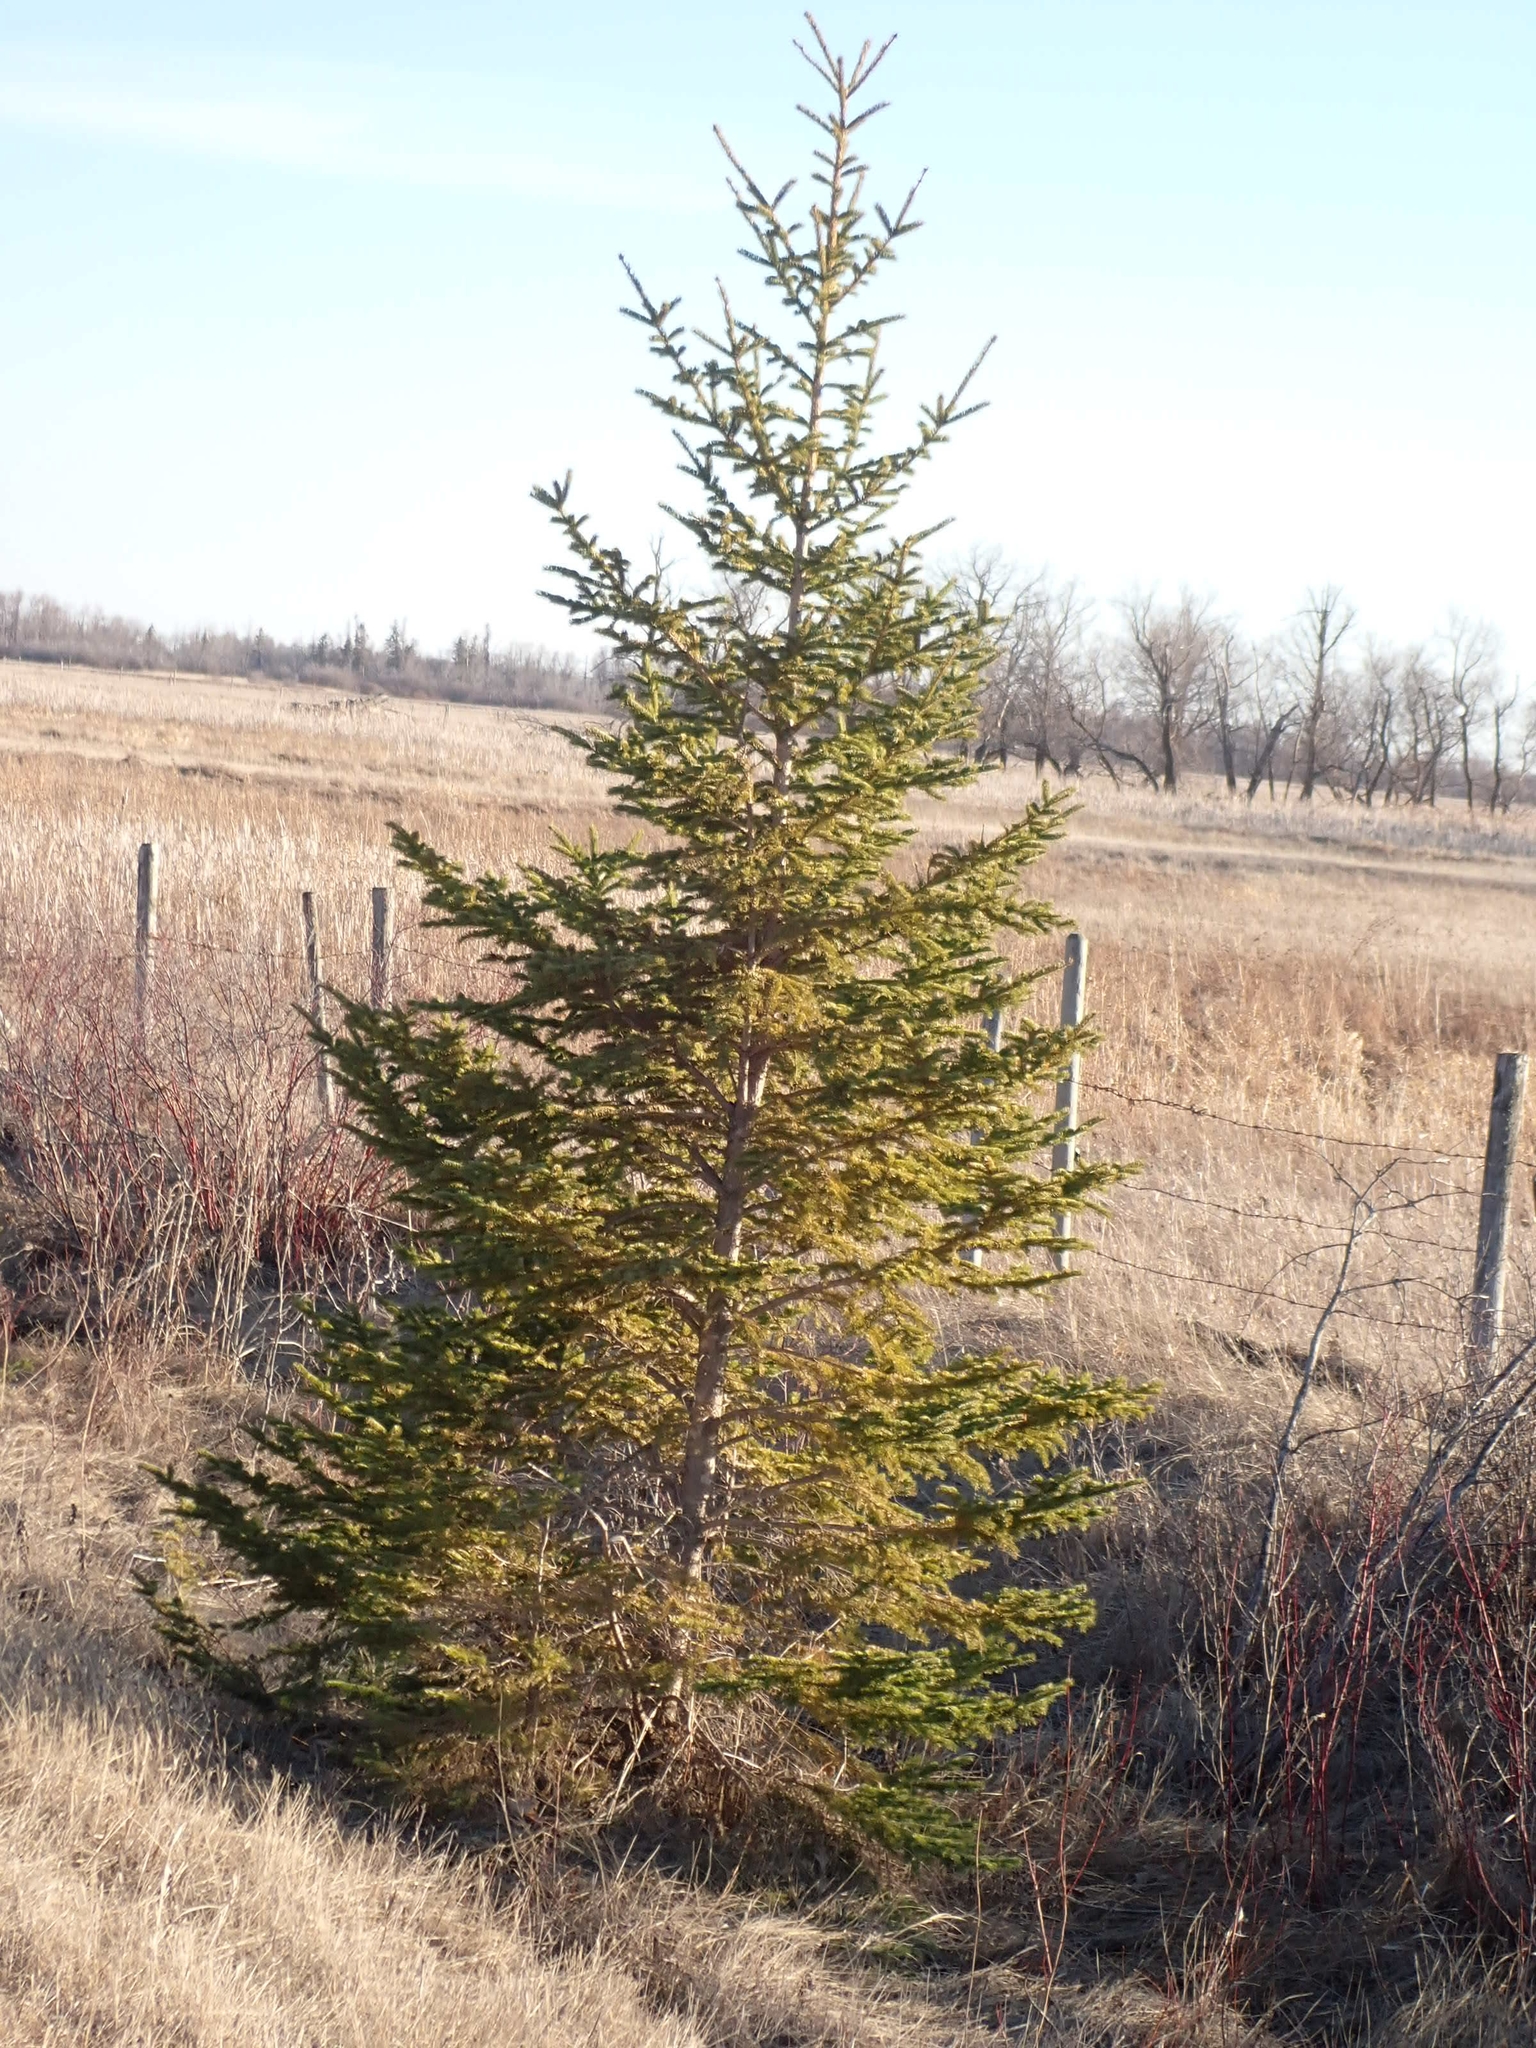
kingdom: Plantae
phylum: Tracheophyta
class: Pinopsida
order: Pinales
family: Pinaceae
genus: Picea
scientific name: Picea glauca
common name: White spruce
